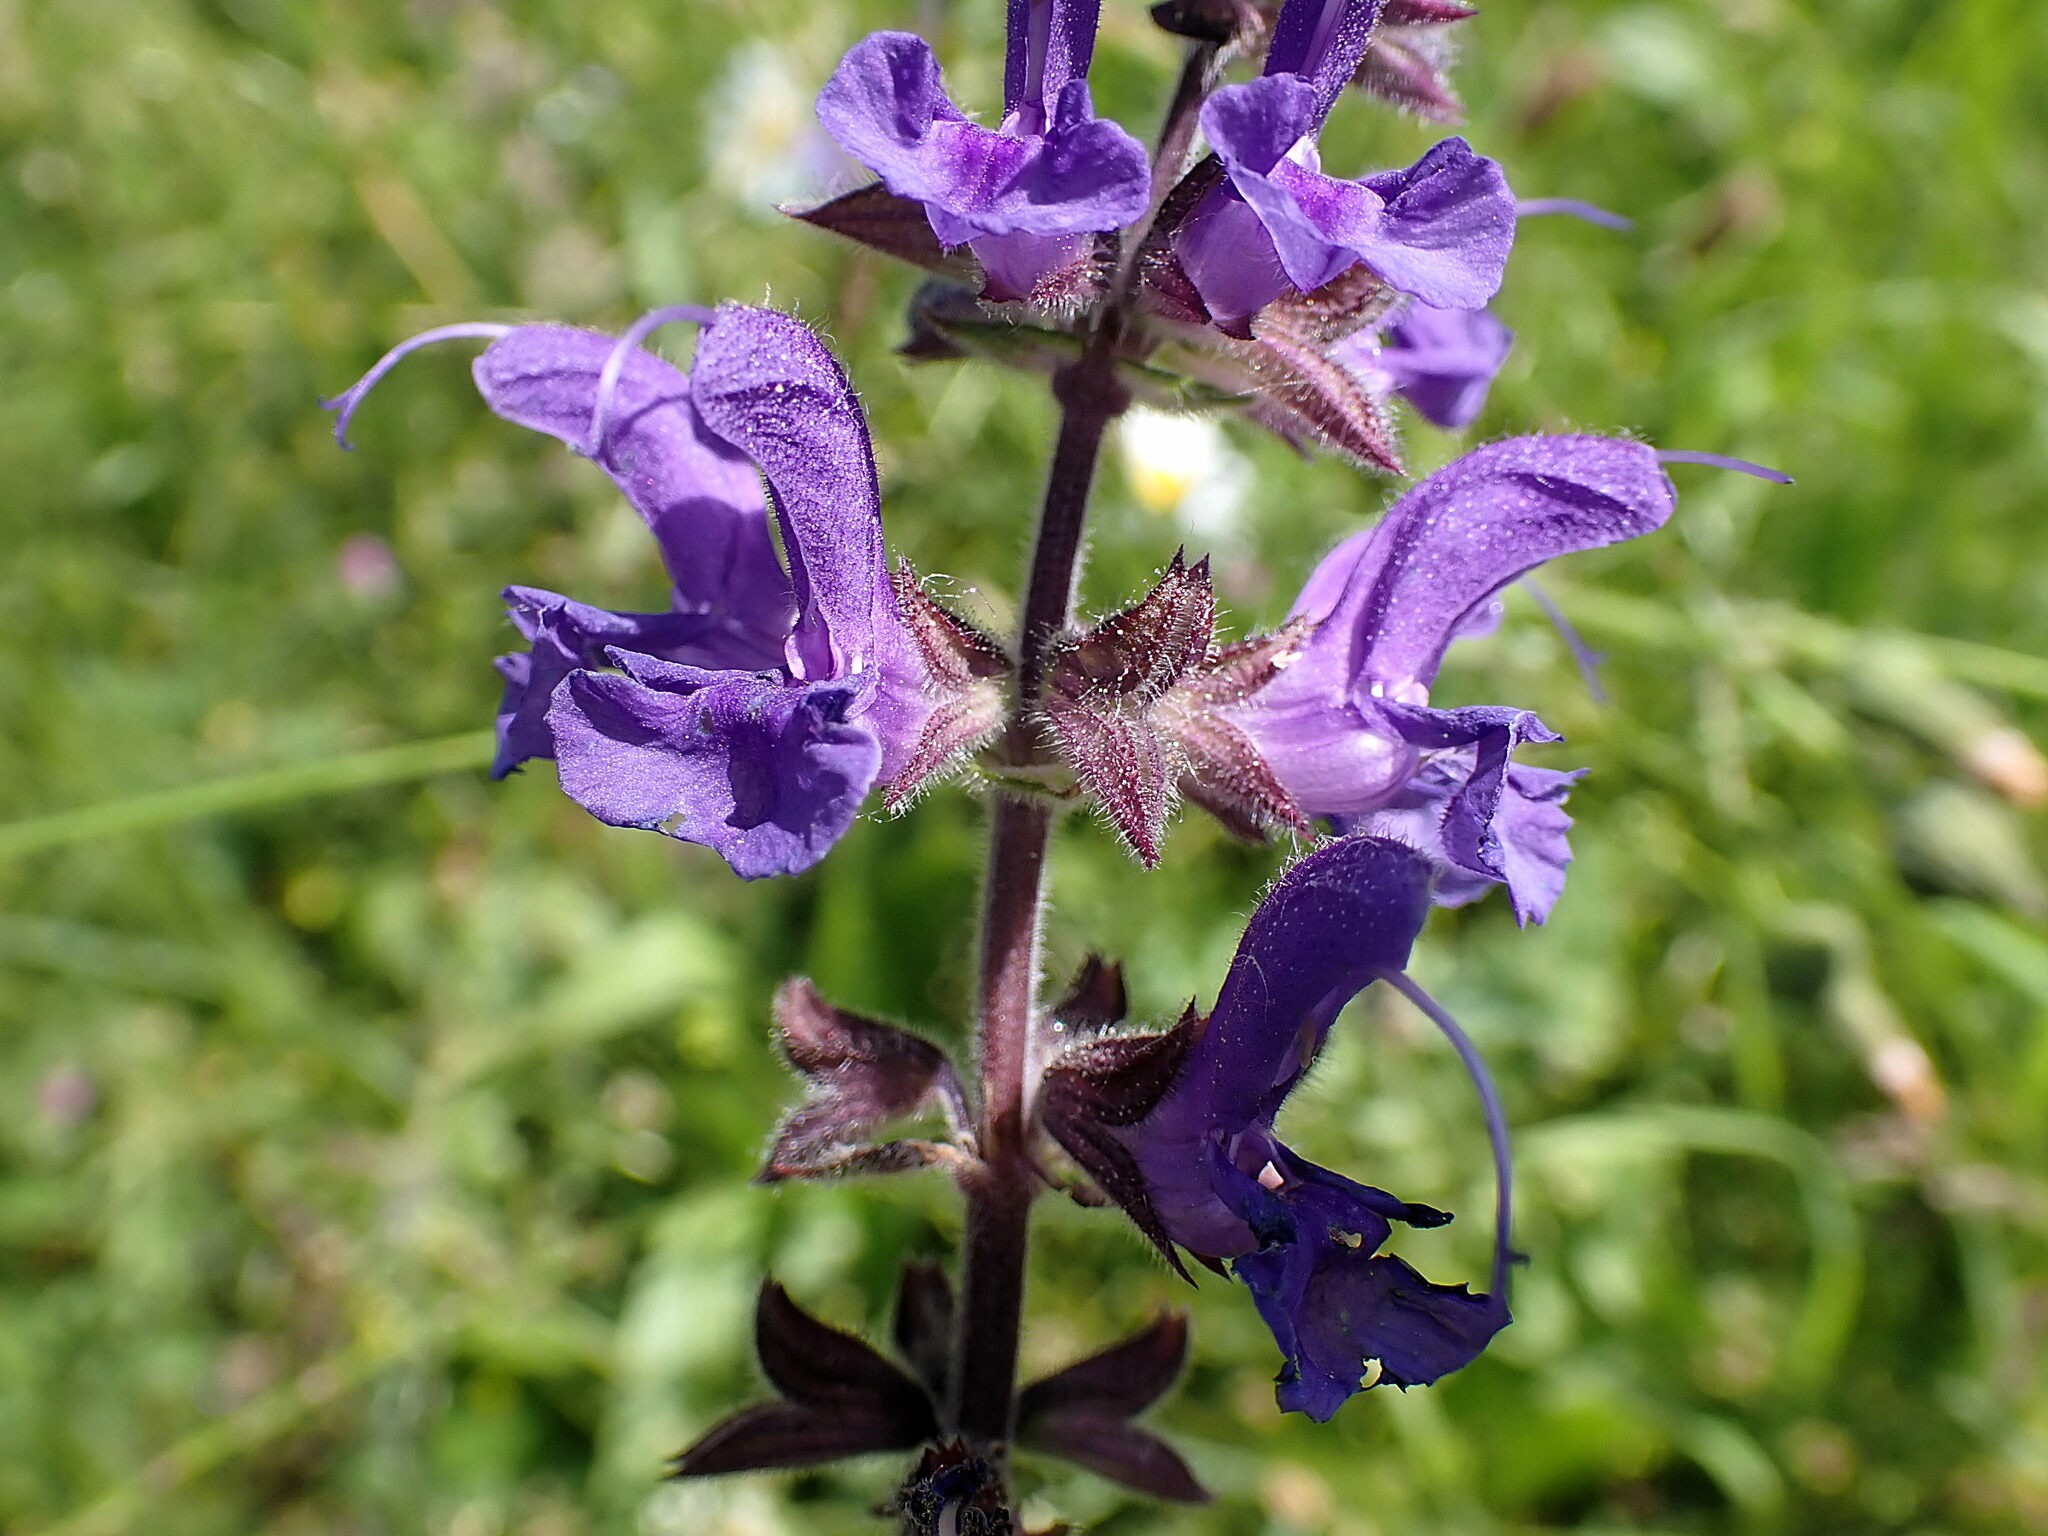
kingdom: Plantae
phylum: Tracheophyta
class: Magnoliopsida
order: Lamiales
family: Lamiaceae
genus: Salvia
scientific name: Salvia pratensis
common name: Meadow sage
